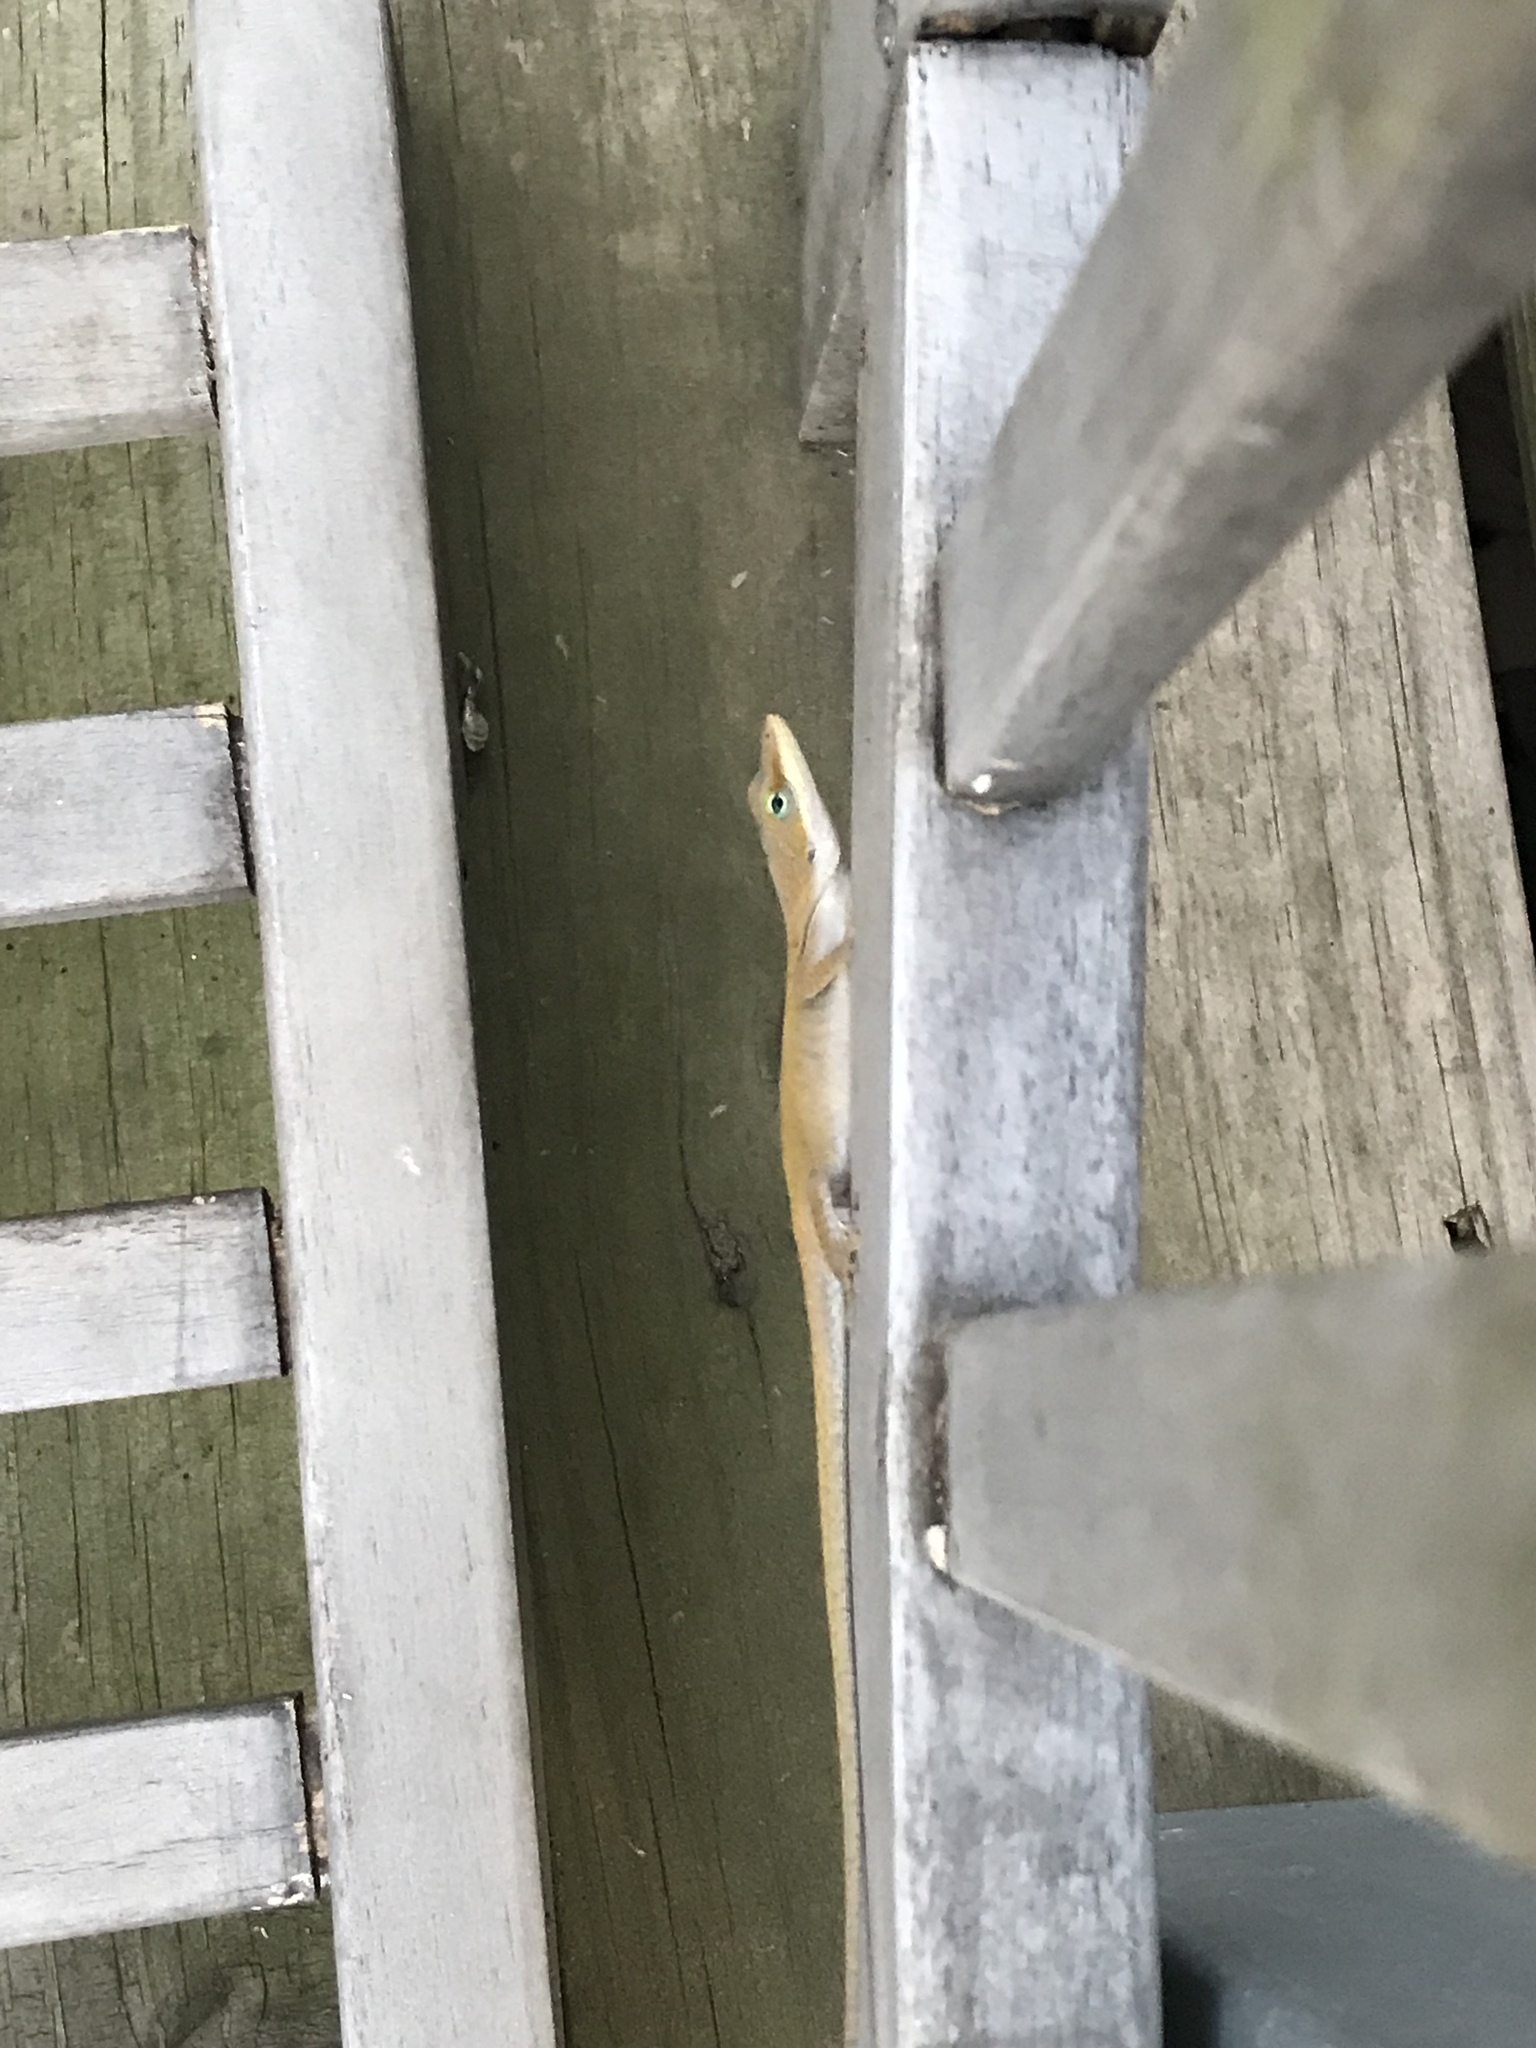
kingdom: Animalia
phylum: Chordata
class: Squamata
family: Dactyloidae
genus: Anolis
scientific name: Anolis carolinensis
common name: Green anole
